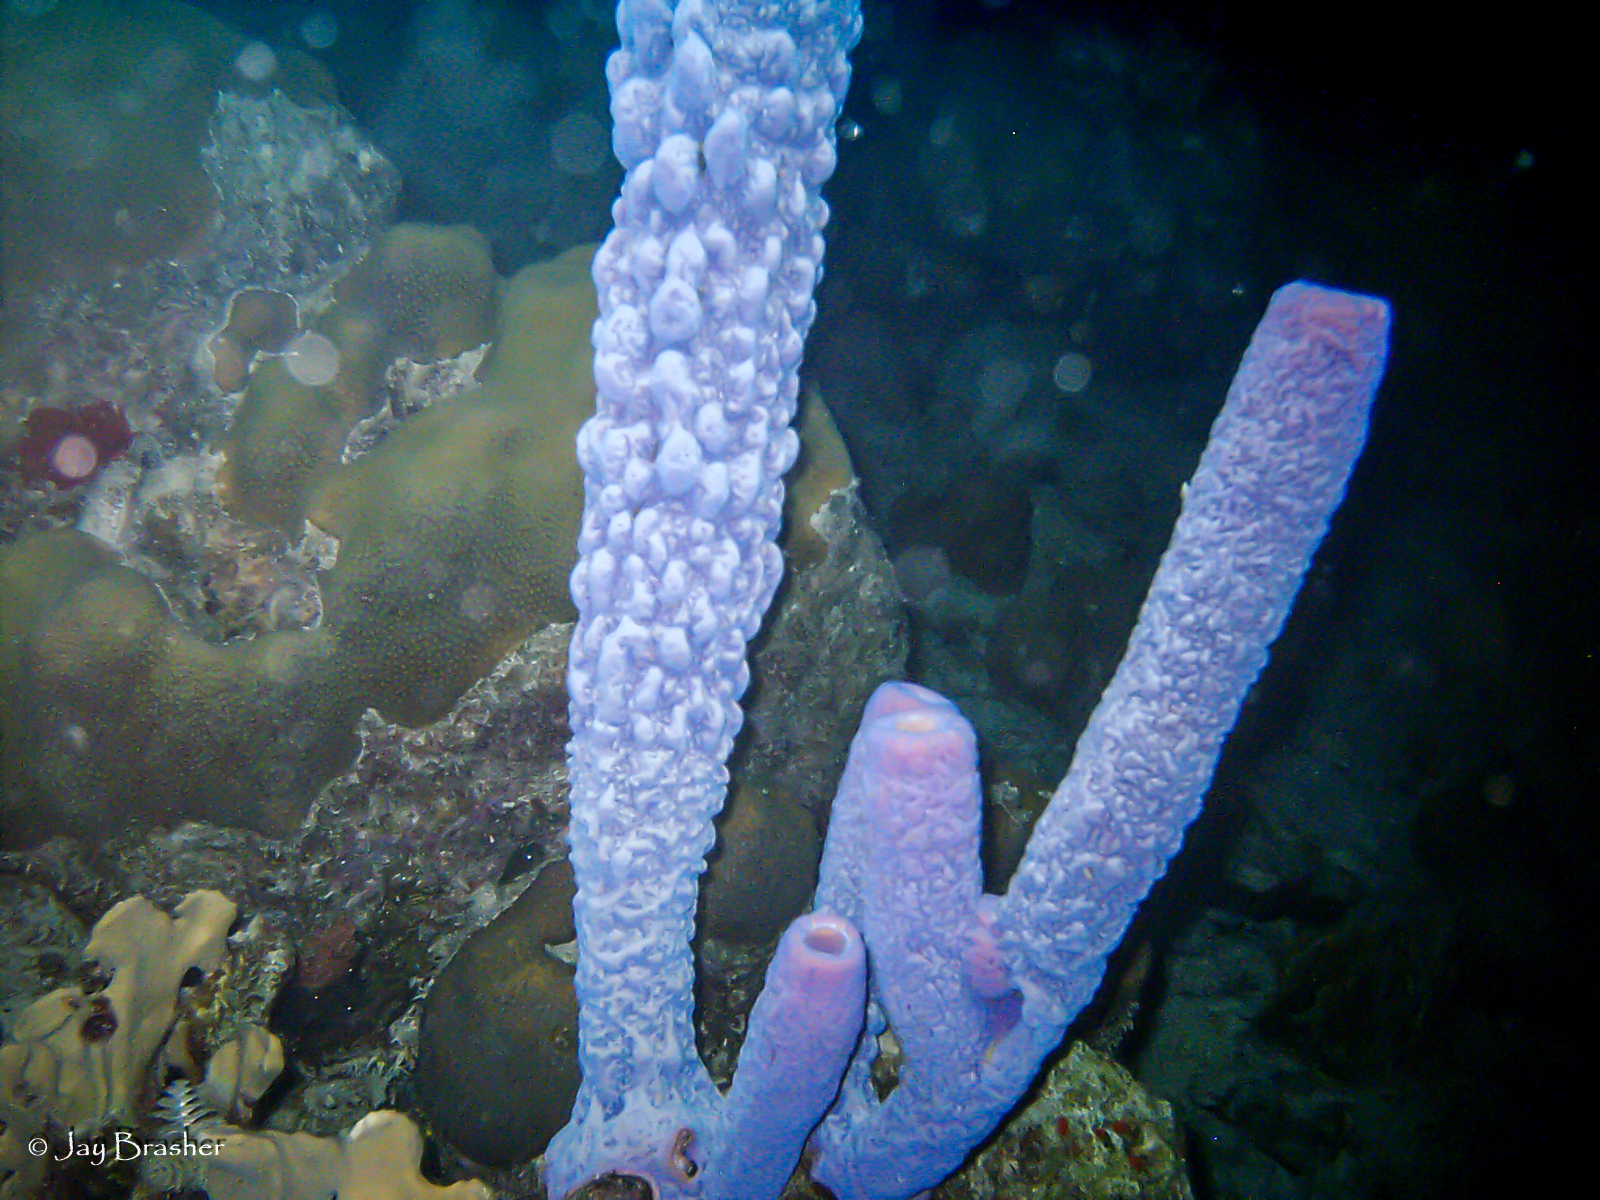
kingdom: Animalia
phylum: Porifera
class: Demospongiae
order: Verongiida
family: Aplysinidae
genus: Aplysina
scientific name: Aplysina archeri
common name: Stove-pipe sponge
